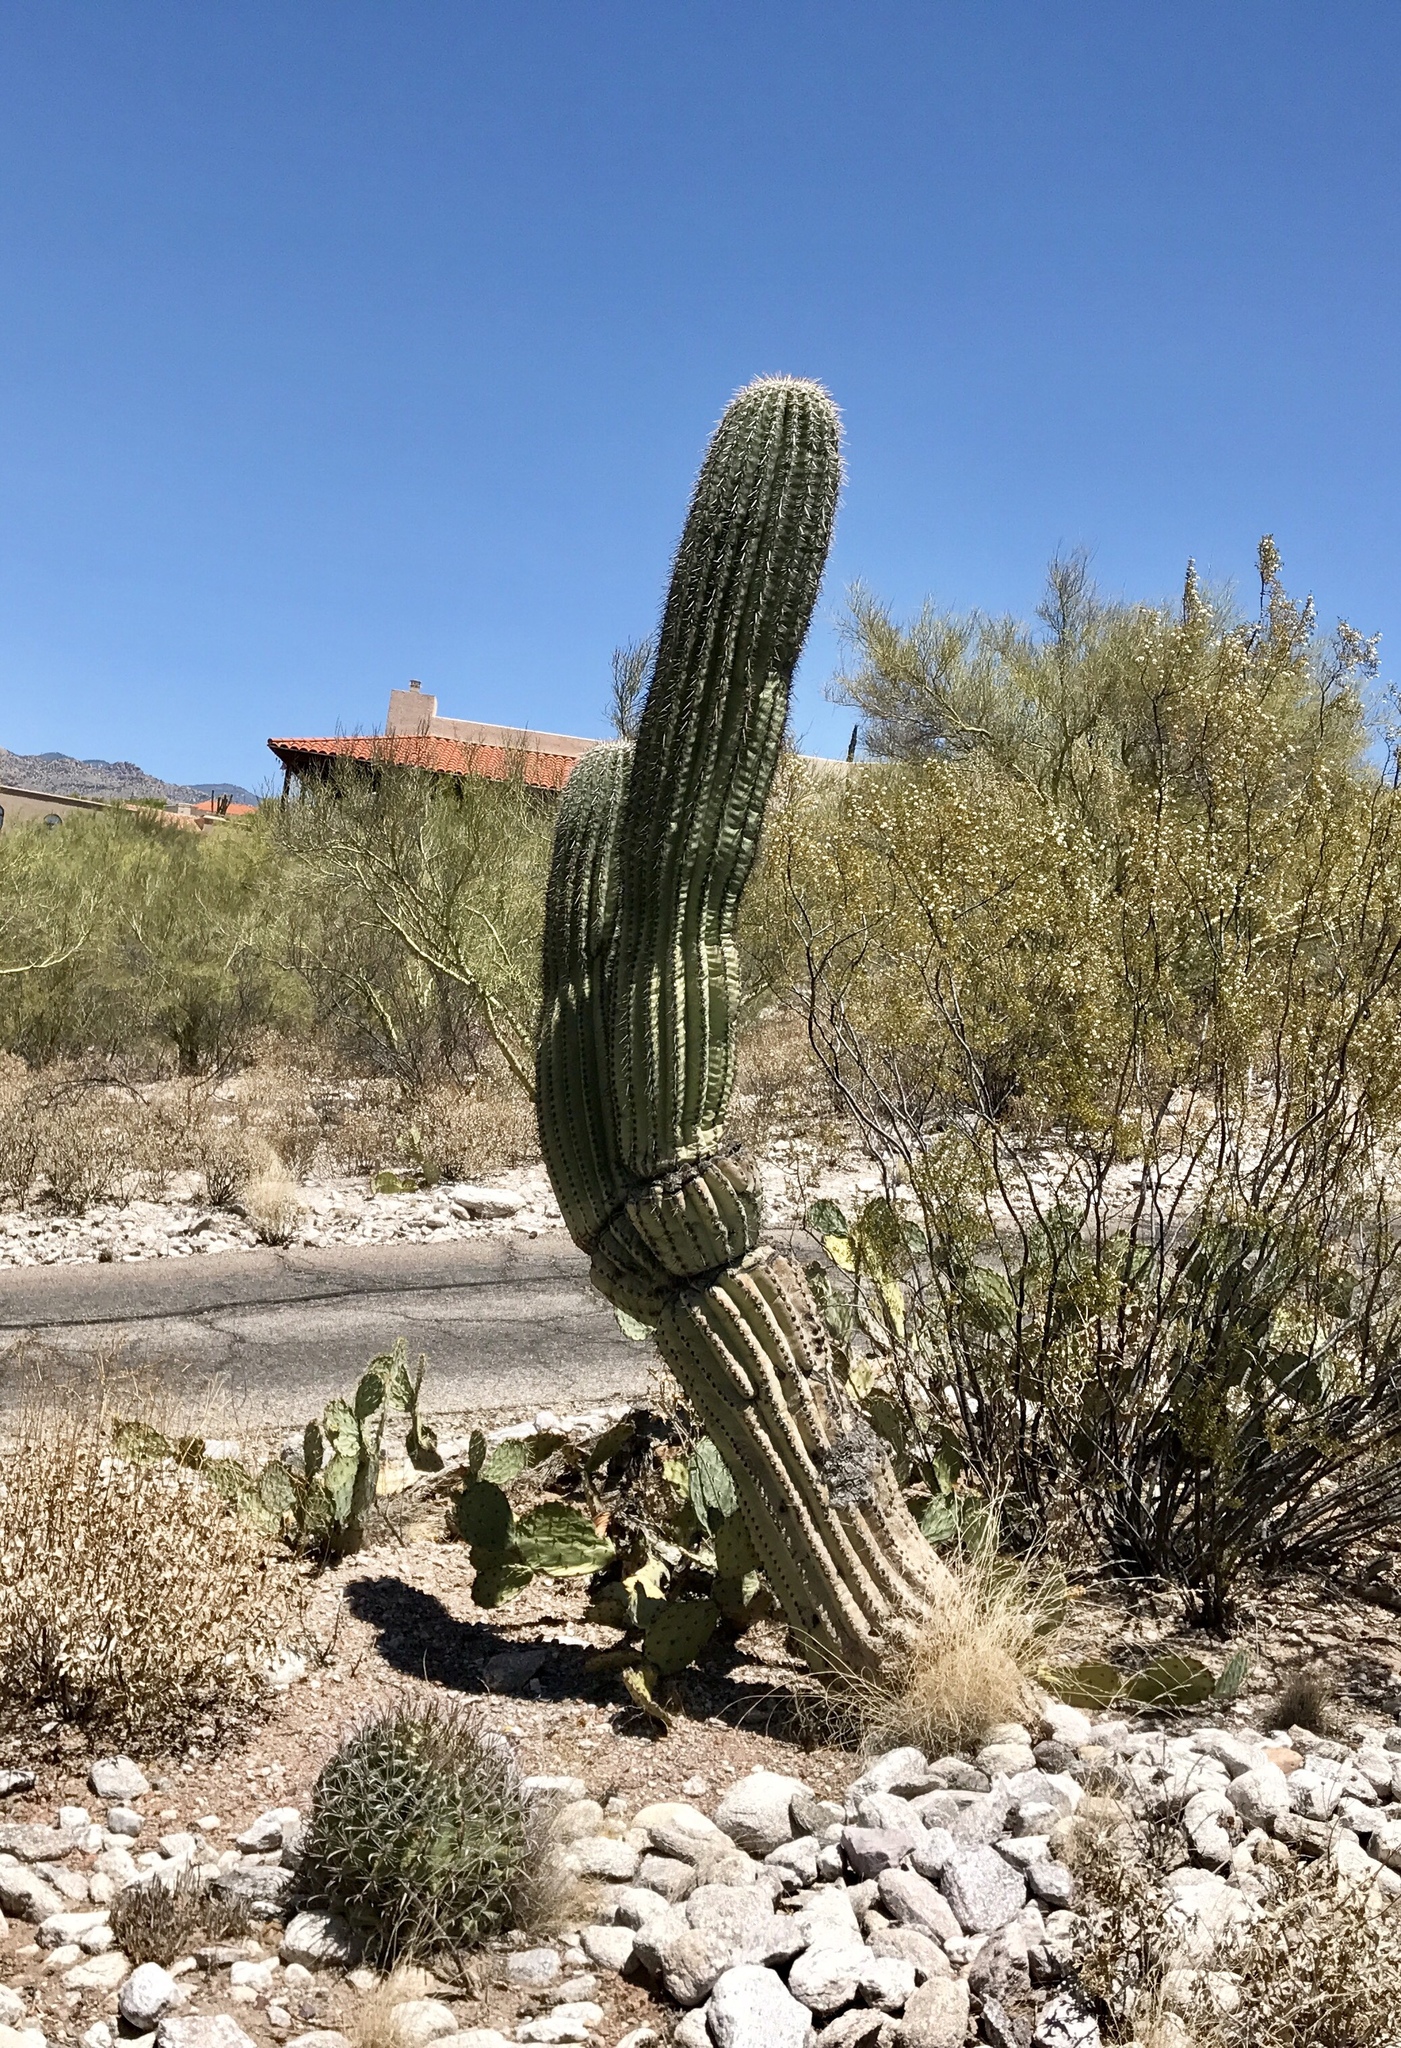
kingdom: Plantae
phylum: Tracheophyta
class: Magnoliopsida
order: Caryophyllales
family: Cactaceae
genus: Carnegiea
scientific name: Carnegiea gigantea
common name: Saguaro
